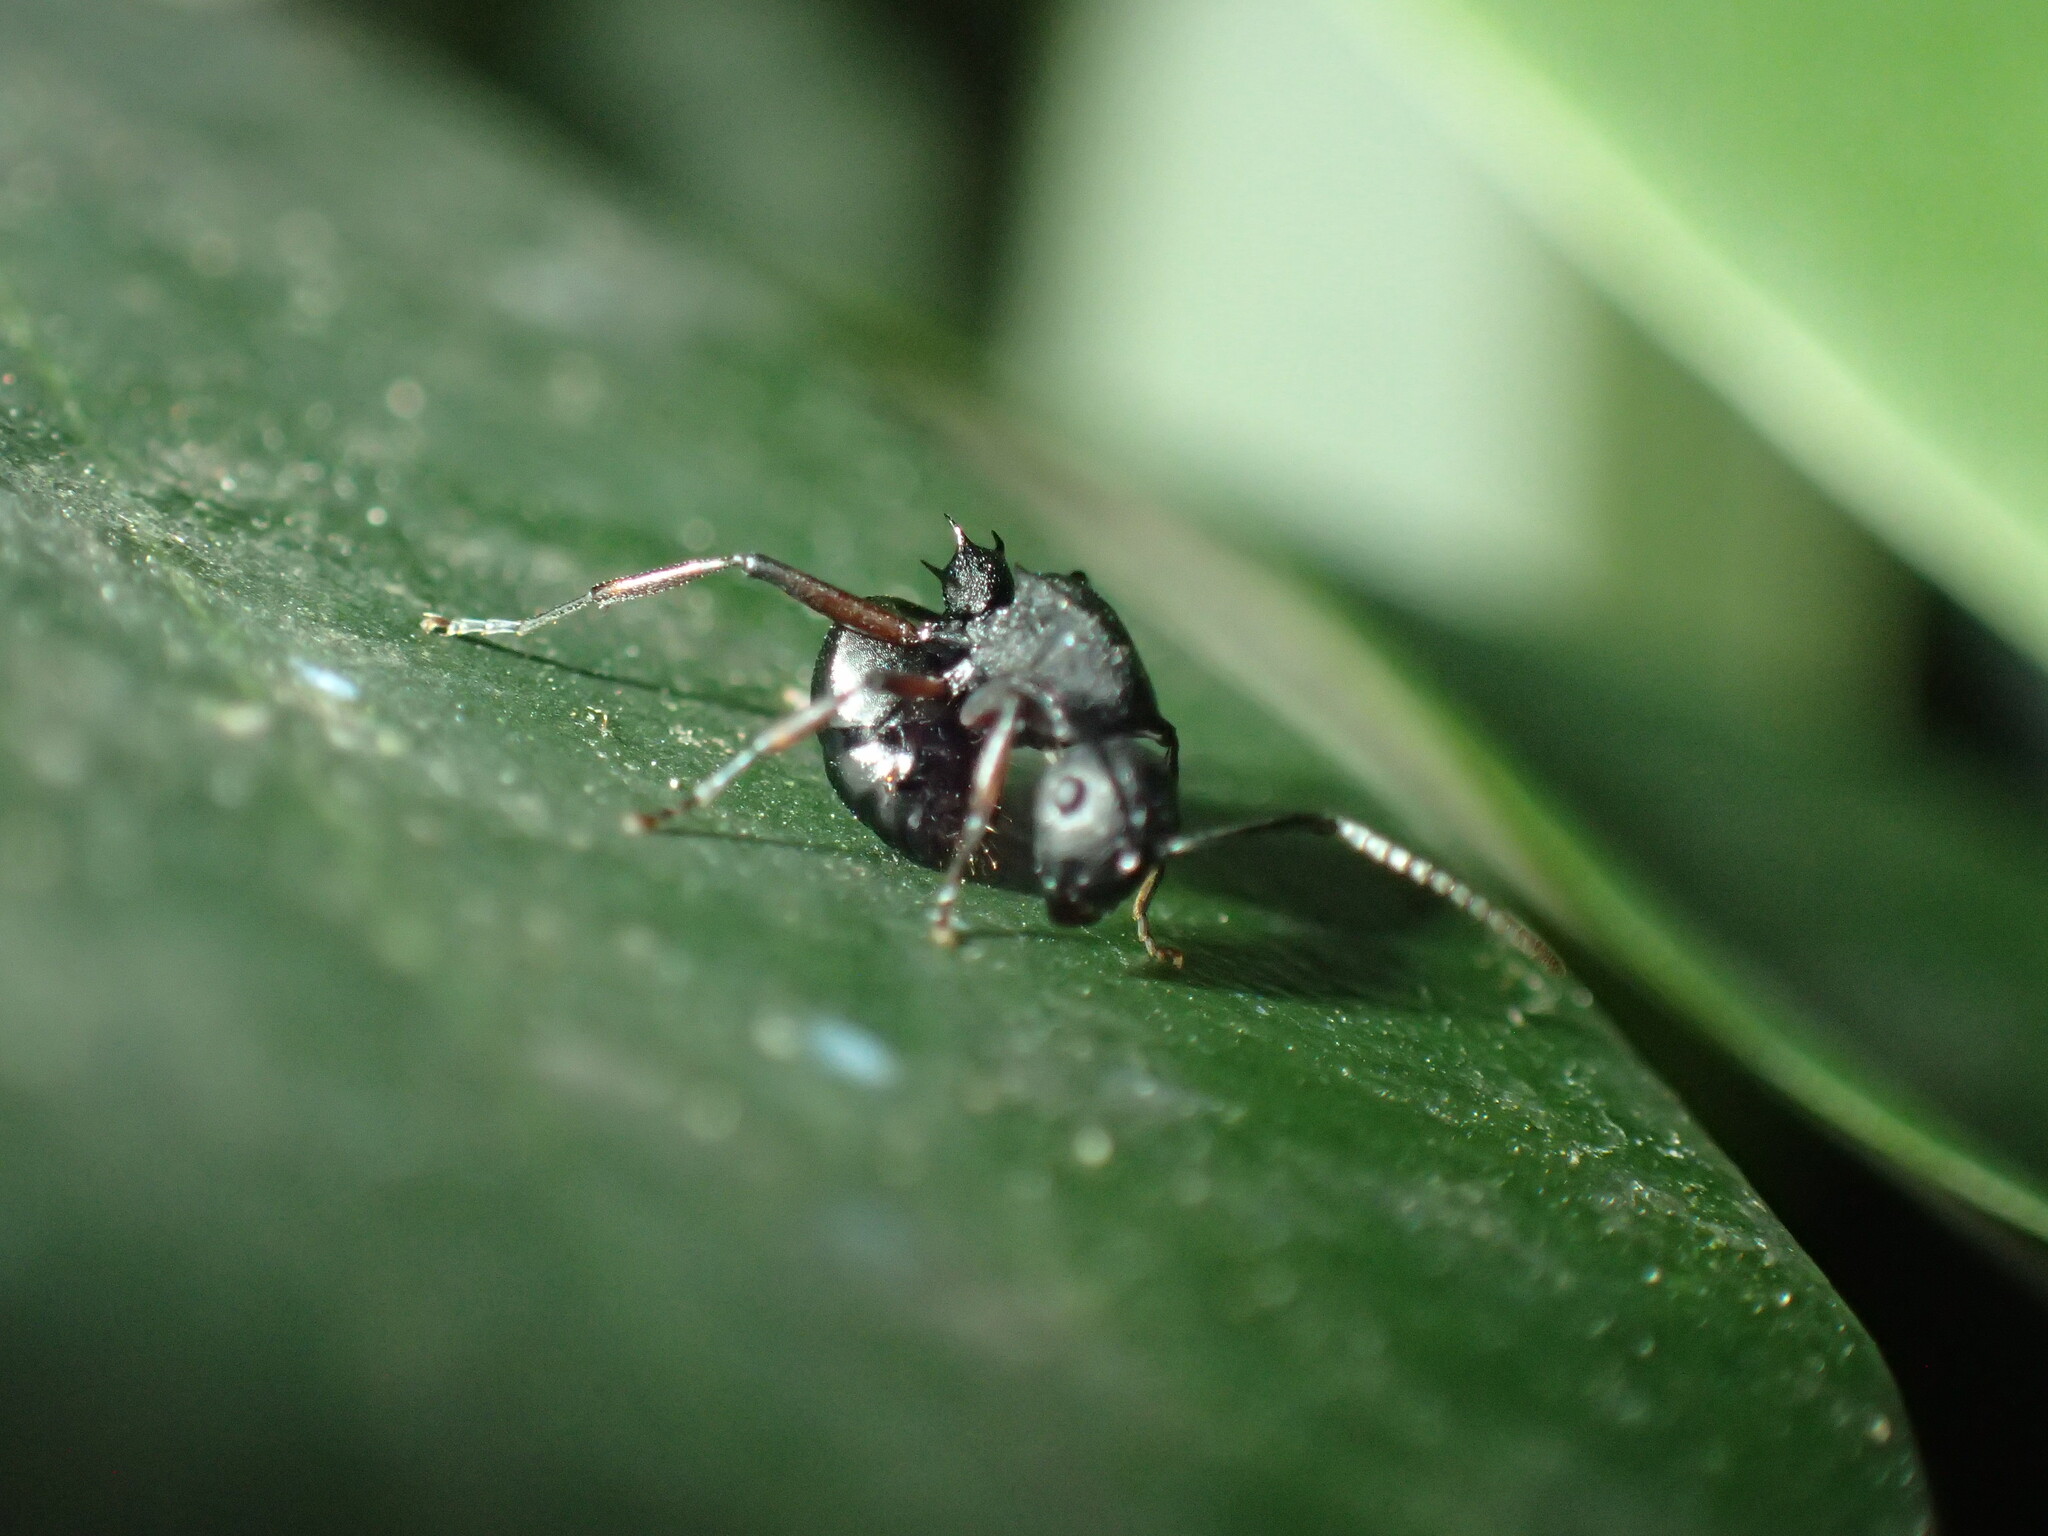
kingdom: Animalia
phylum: Arthropoda
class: Insecta
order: Hymenoptera
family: Formicidae
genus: Polyrhachis
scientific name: Polyrhachis durbanensis
